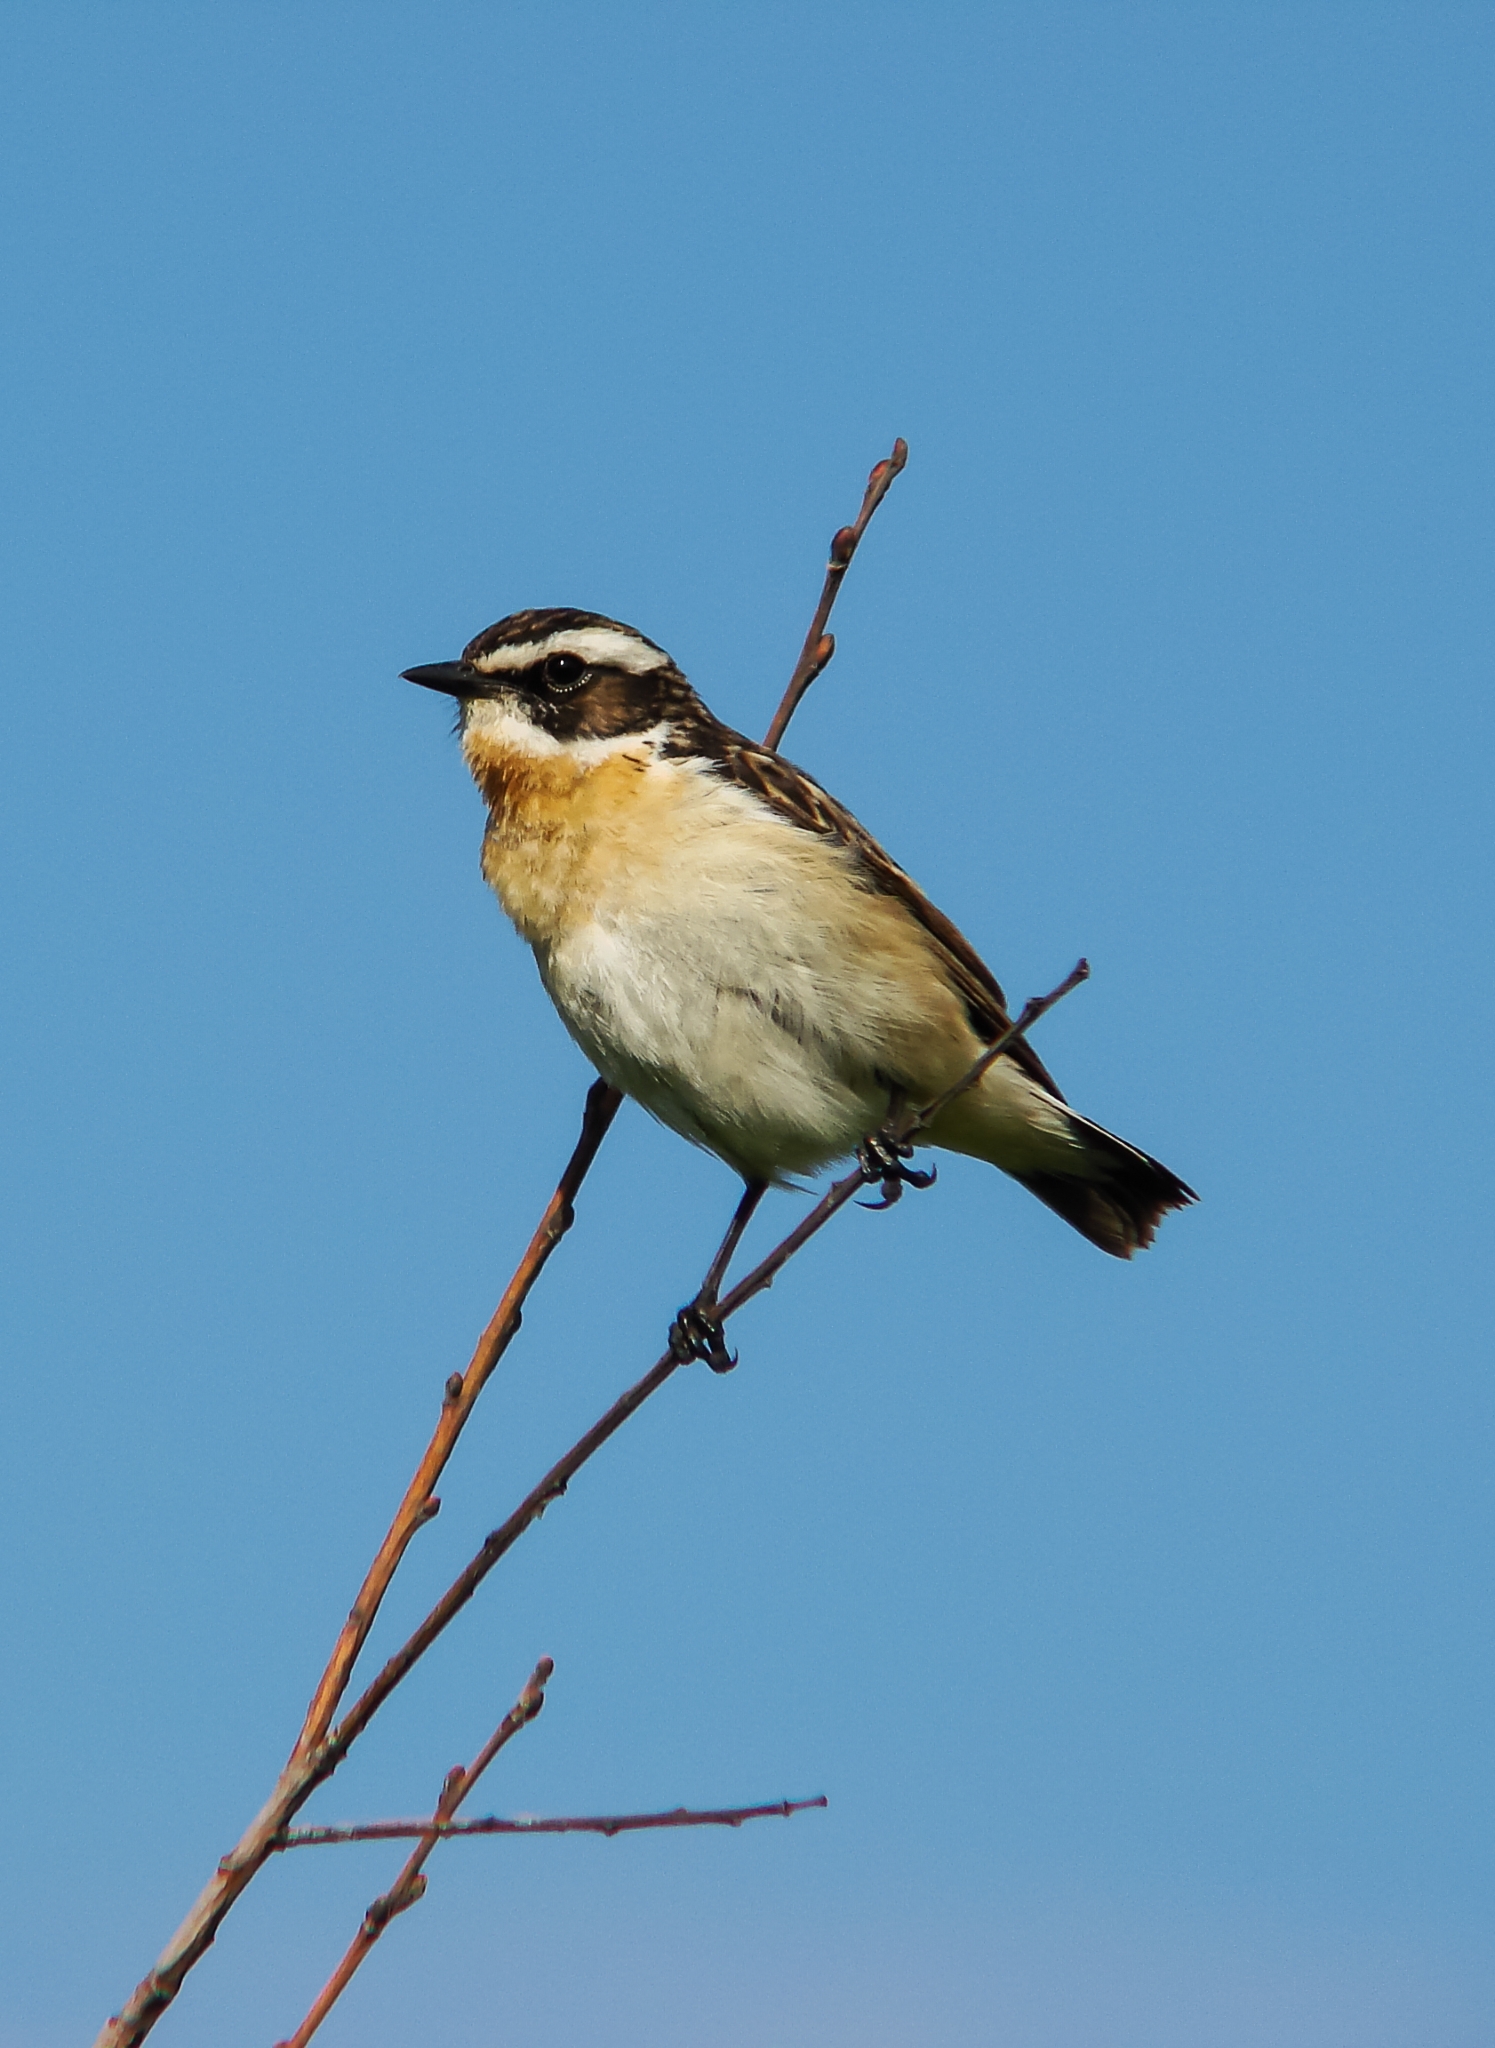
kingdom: Animalia
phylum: Chordata
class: Aves
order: Passeriformes
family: Muscicapidae
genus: Saxicola
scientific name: Saxicola rubetra
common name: Whinchat
